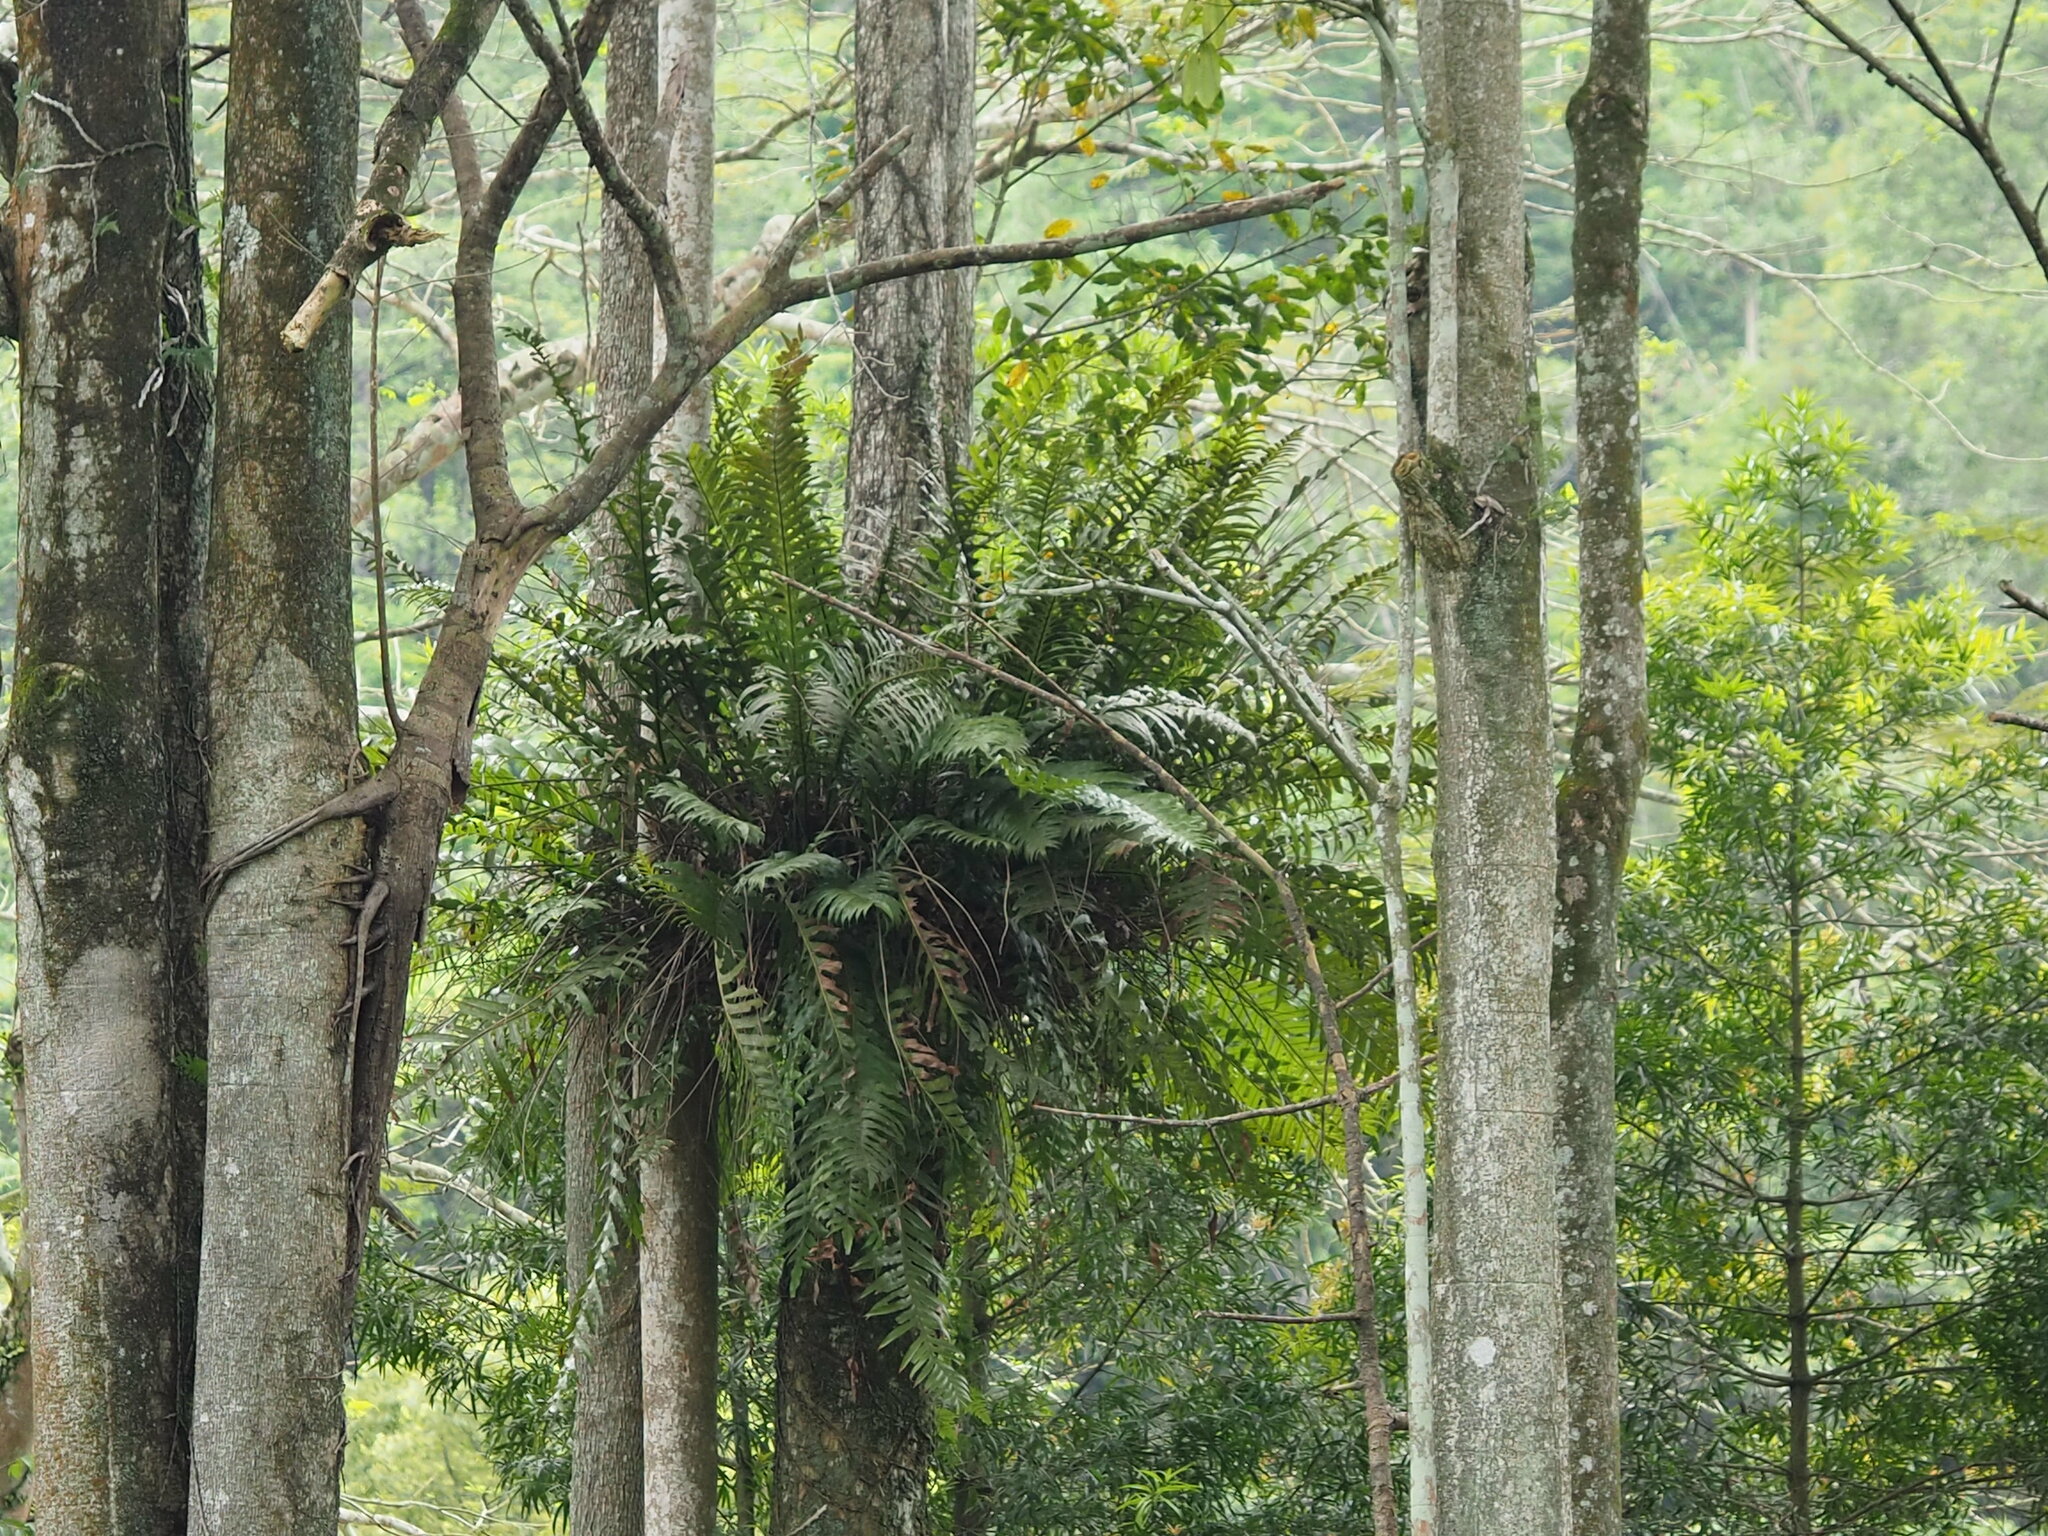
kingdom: Plantae
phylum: Tracheophyta
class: Polypodiopsida
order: Polypodiales
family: Polypodiaceae
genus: Drynaria
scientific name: Drynaria coronans
